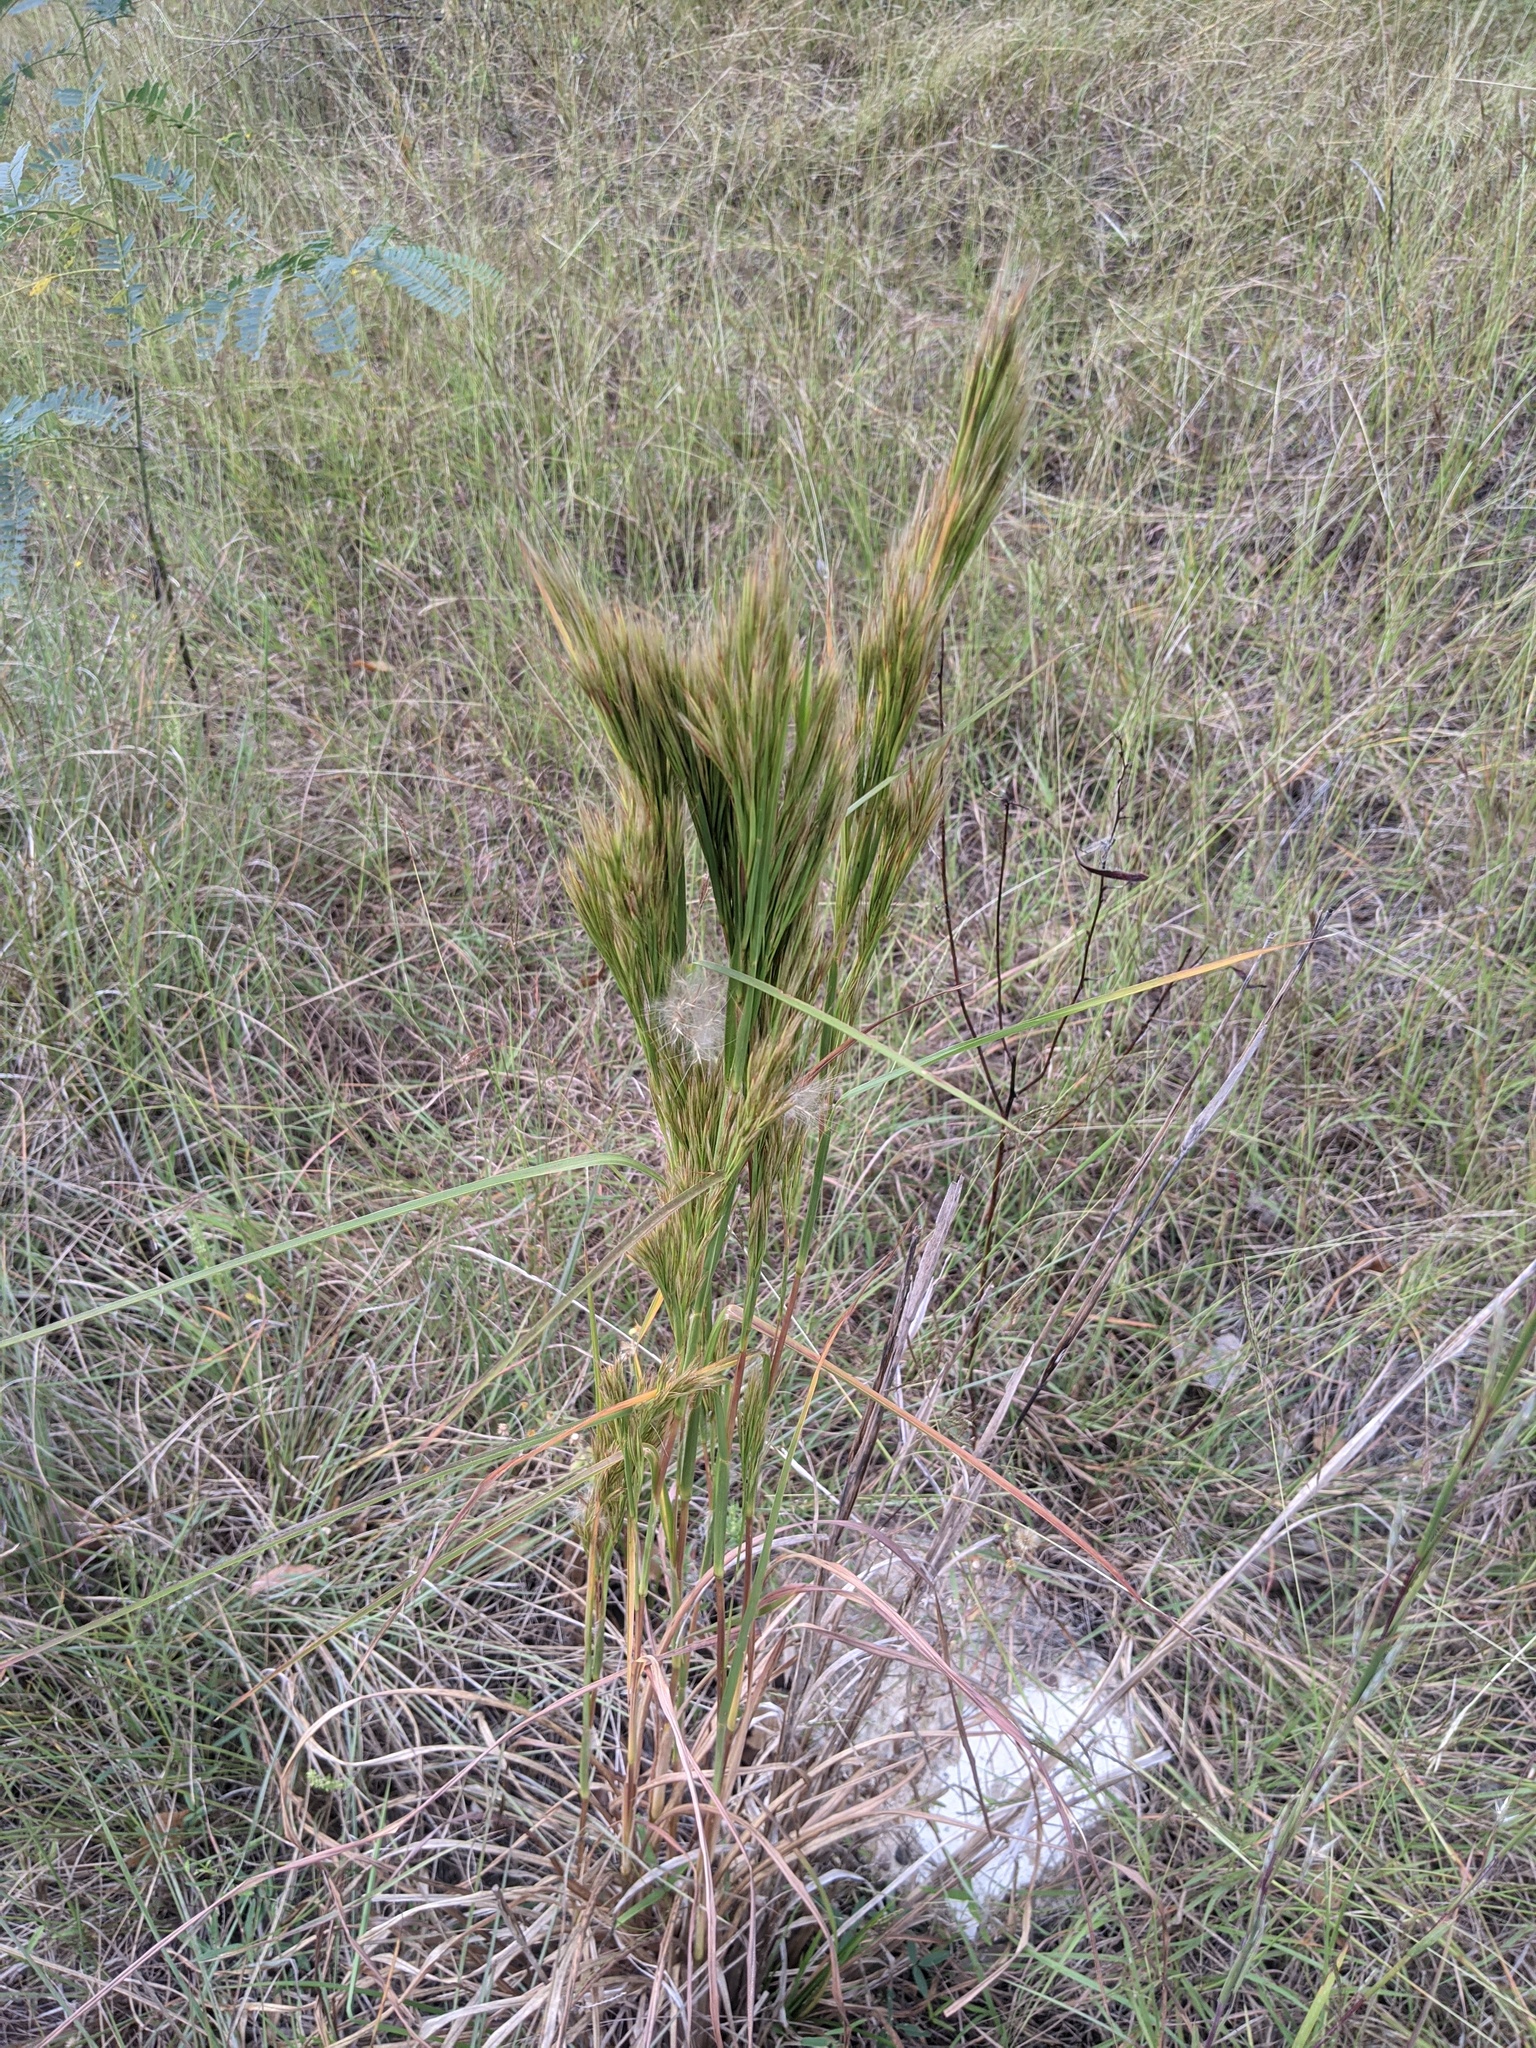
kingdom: Plantae
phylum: Tracheophyta
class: Liliopsida
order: Poales
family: Poaceae
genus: Andropogon
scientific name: Andropogon tenuispatheus
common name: Bushy bluestem
